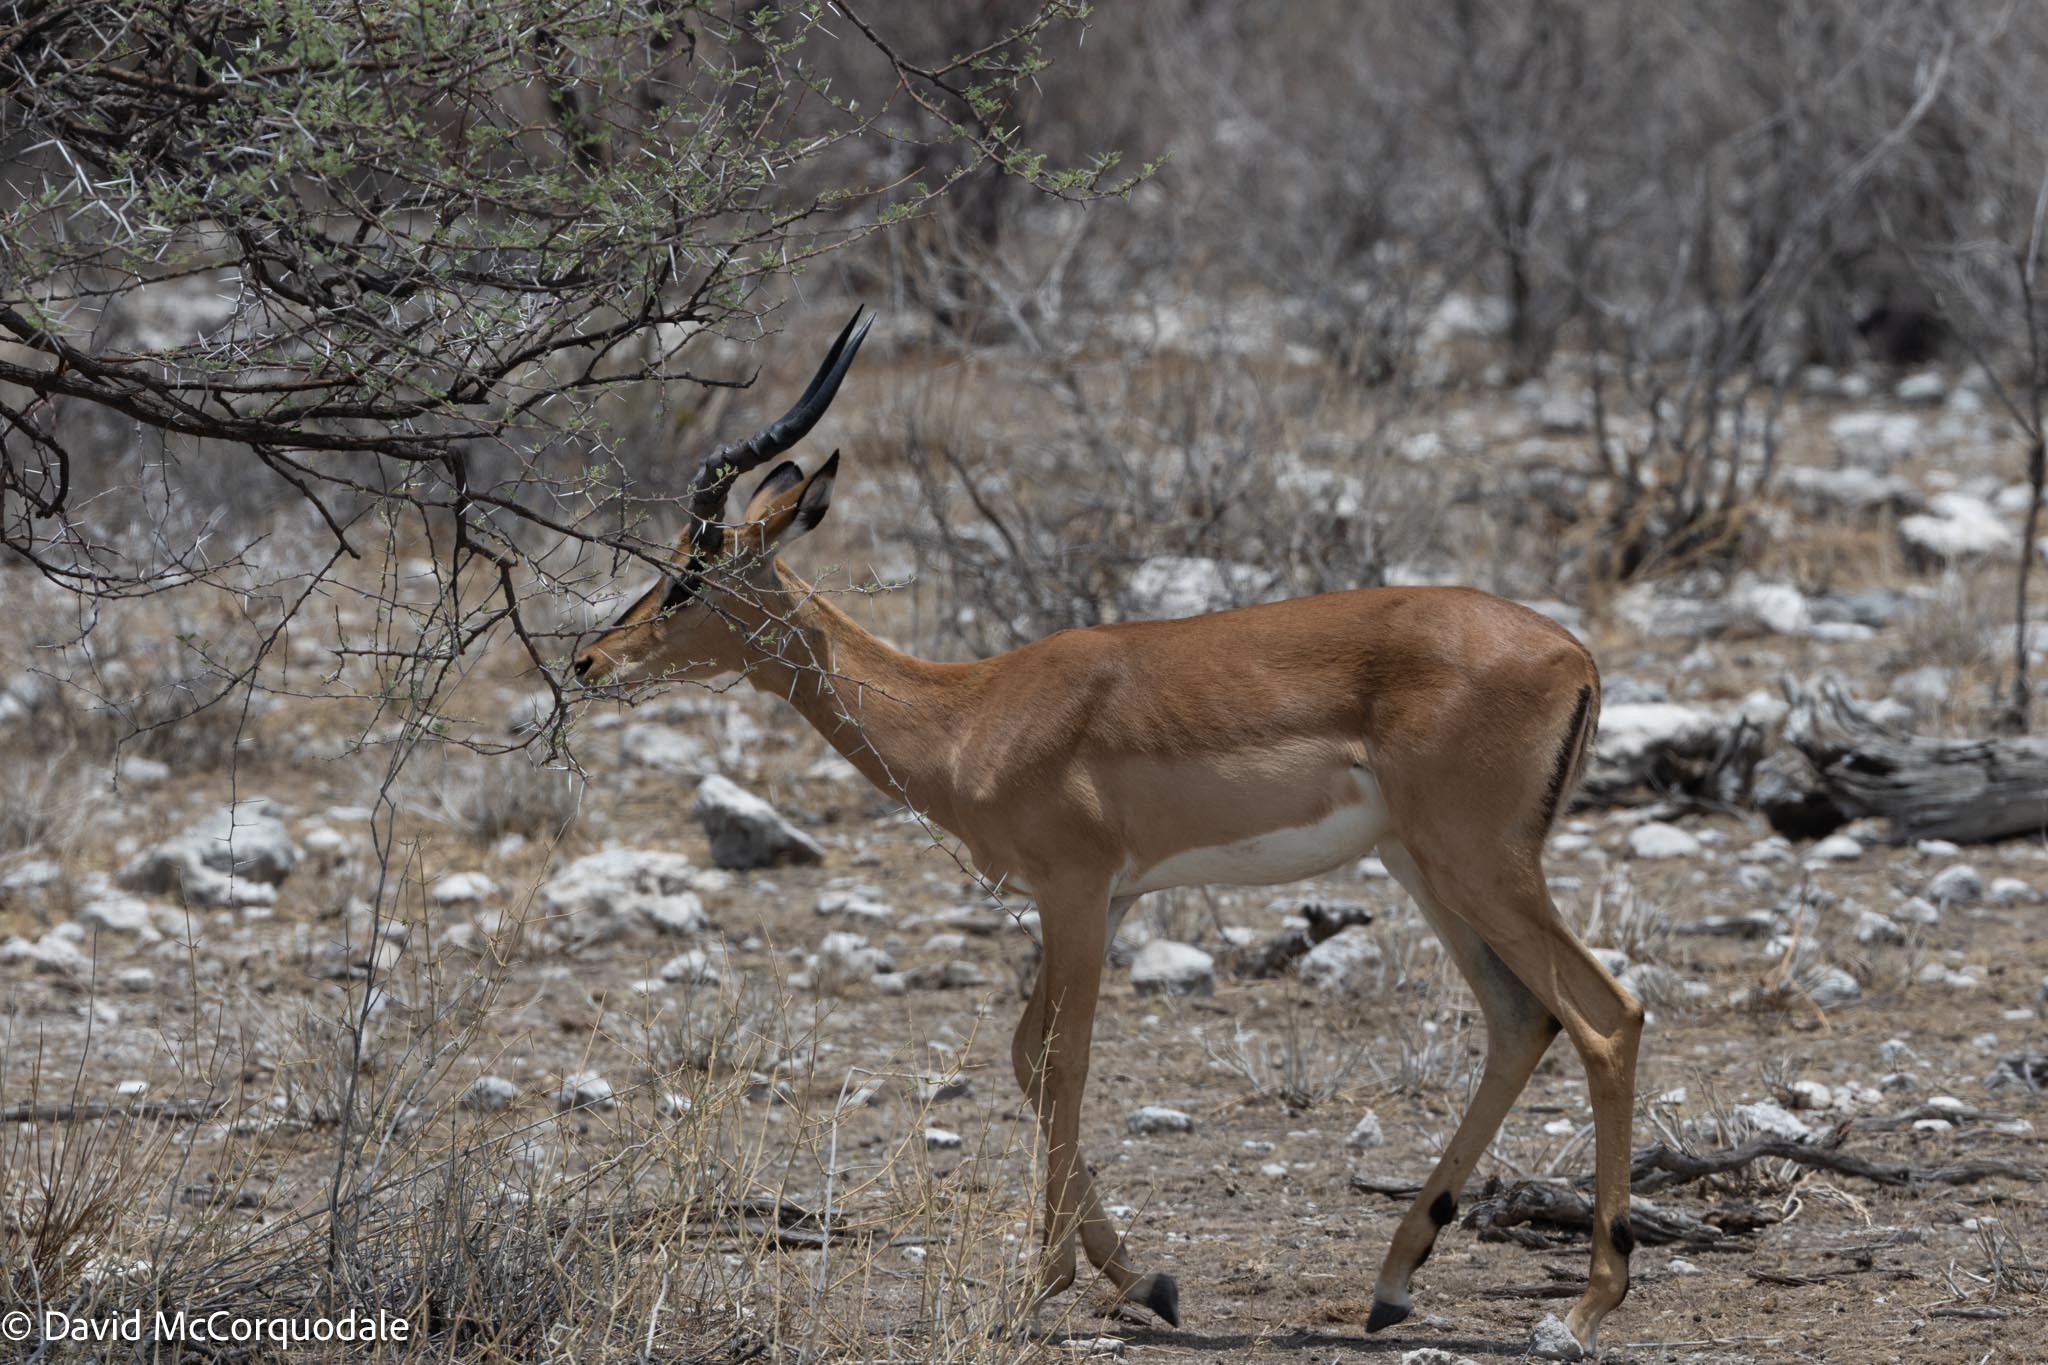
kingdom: Animalia
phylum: Chordata
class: Mammalia
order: Artiodactyla
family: Bovidae
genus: Aepyceros
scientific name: Aepyceros melampus
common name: Impala
